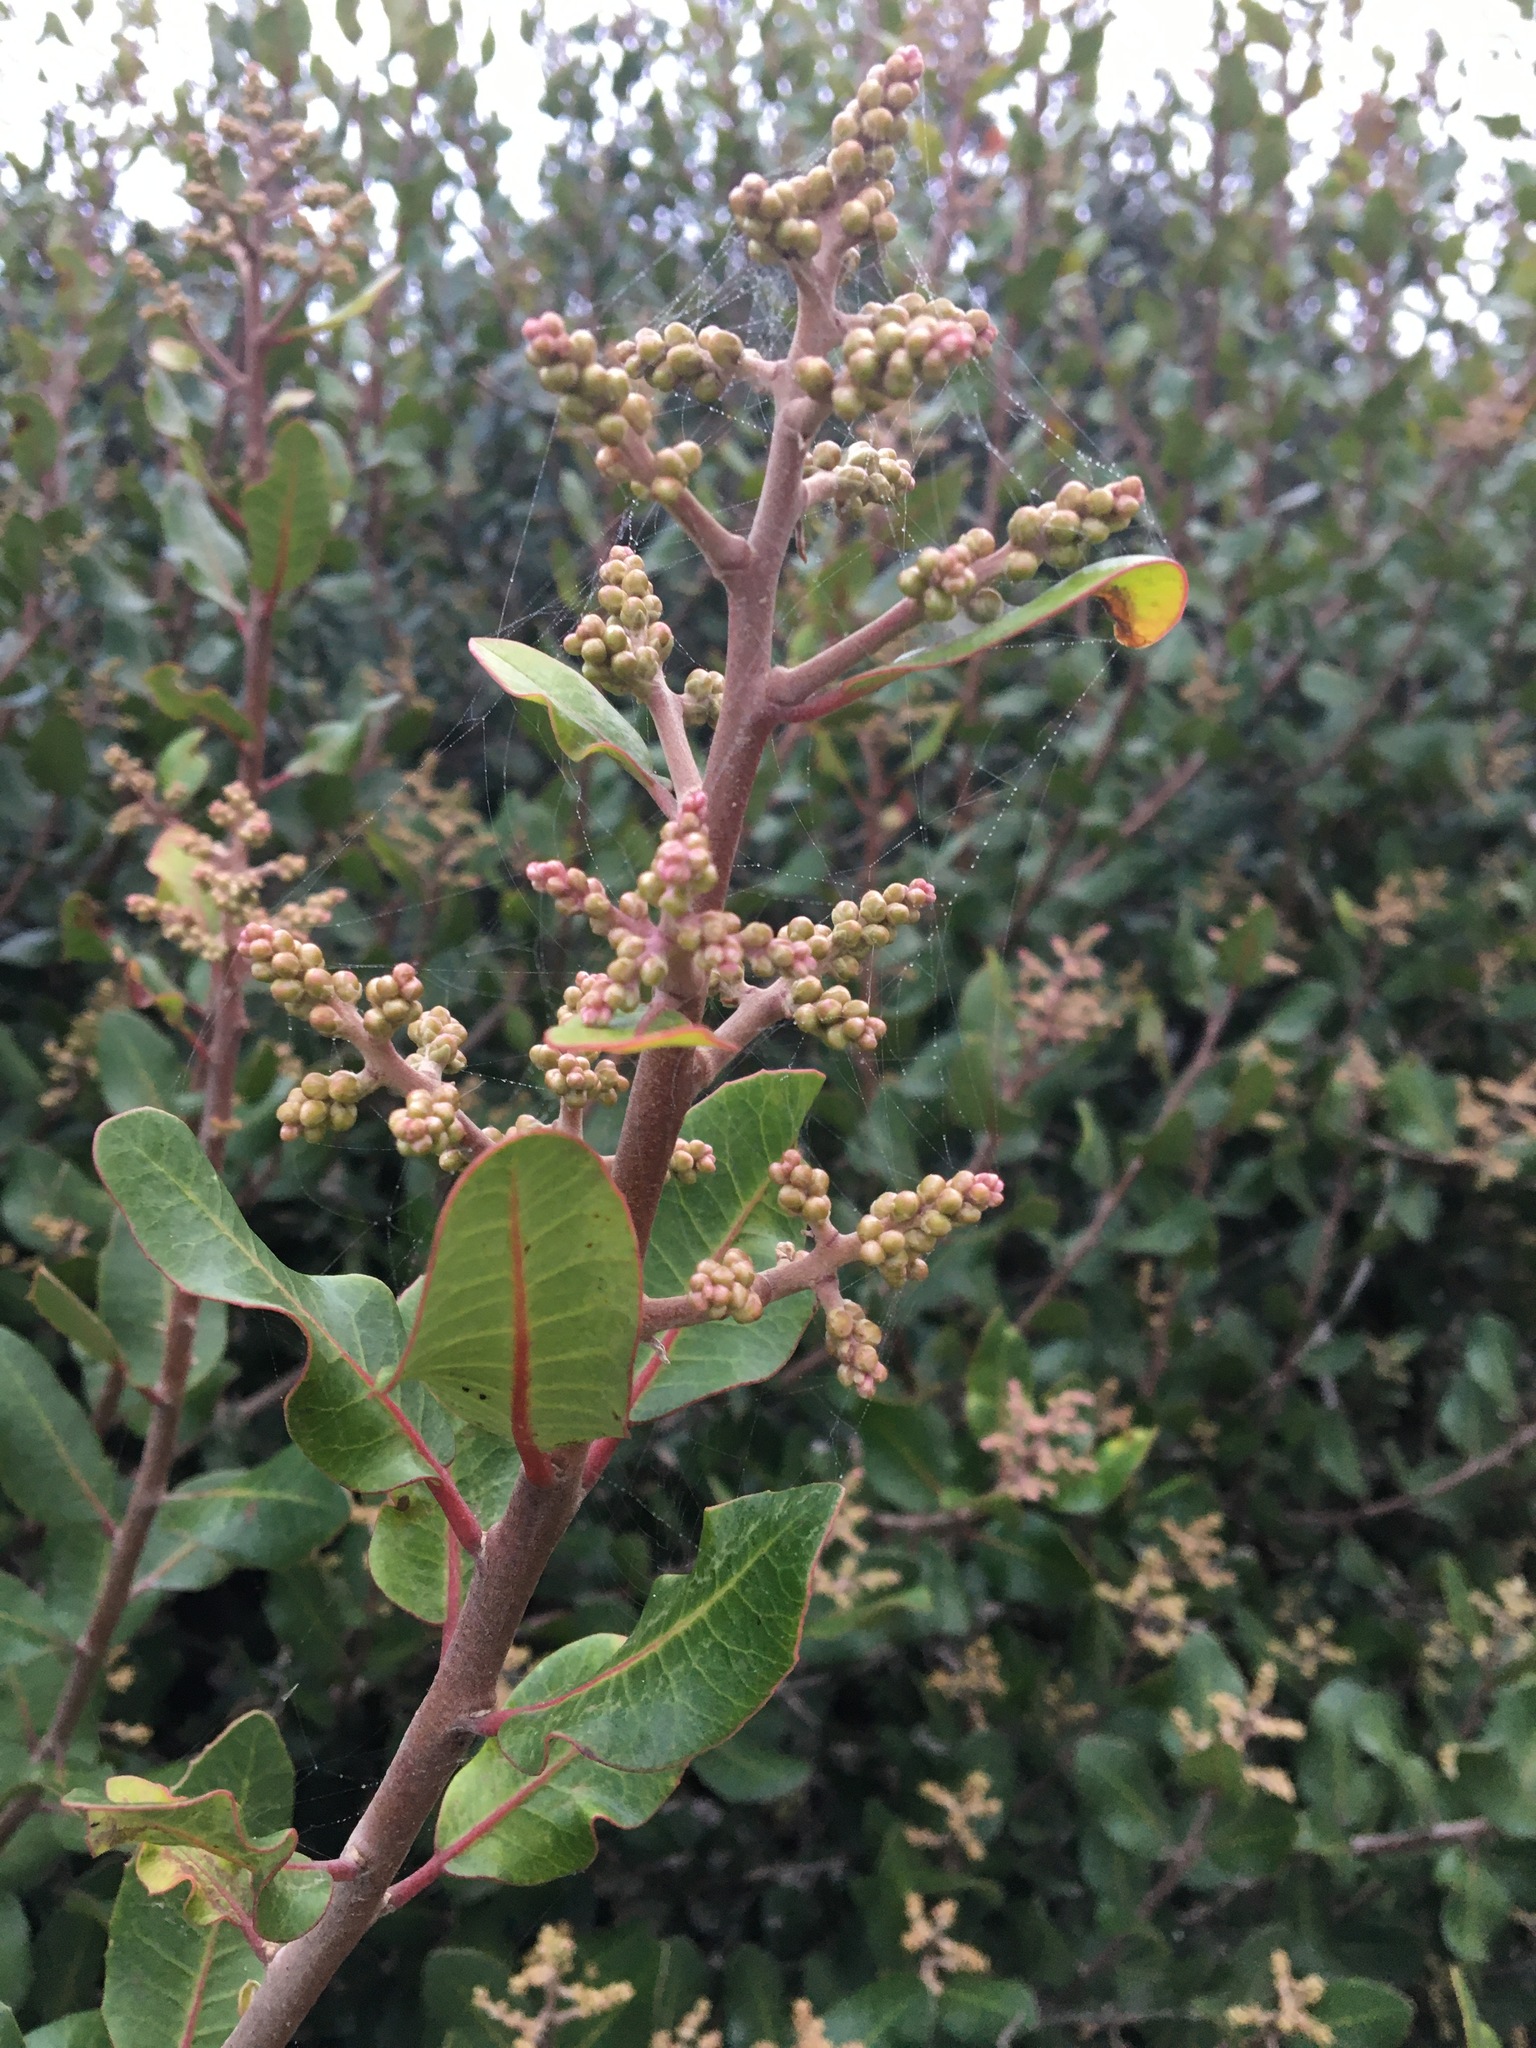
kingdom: Plantae
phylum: Tracheophyta
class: Magnoliopsida
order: Sapindales
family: Anacardiaceae
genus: Rhus
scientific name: Rhus integrifolia
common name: Lemonade sumac
